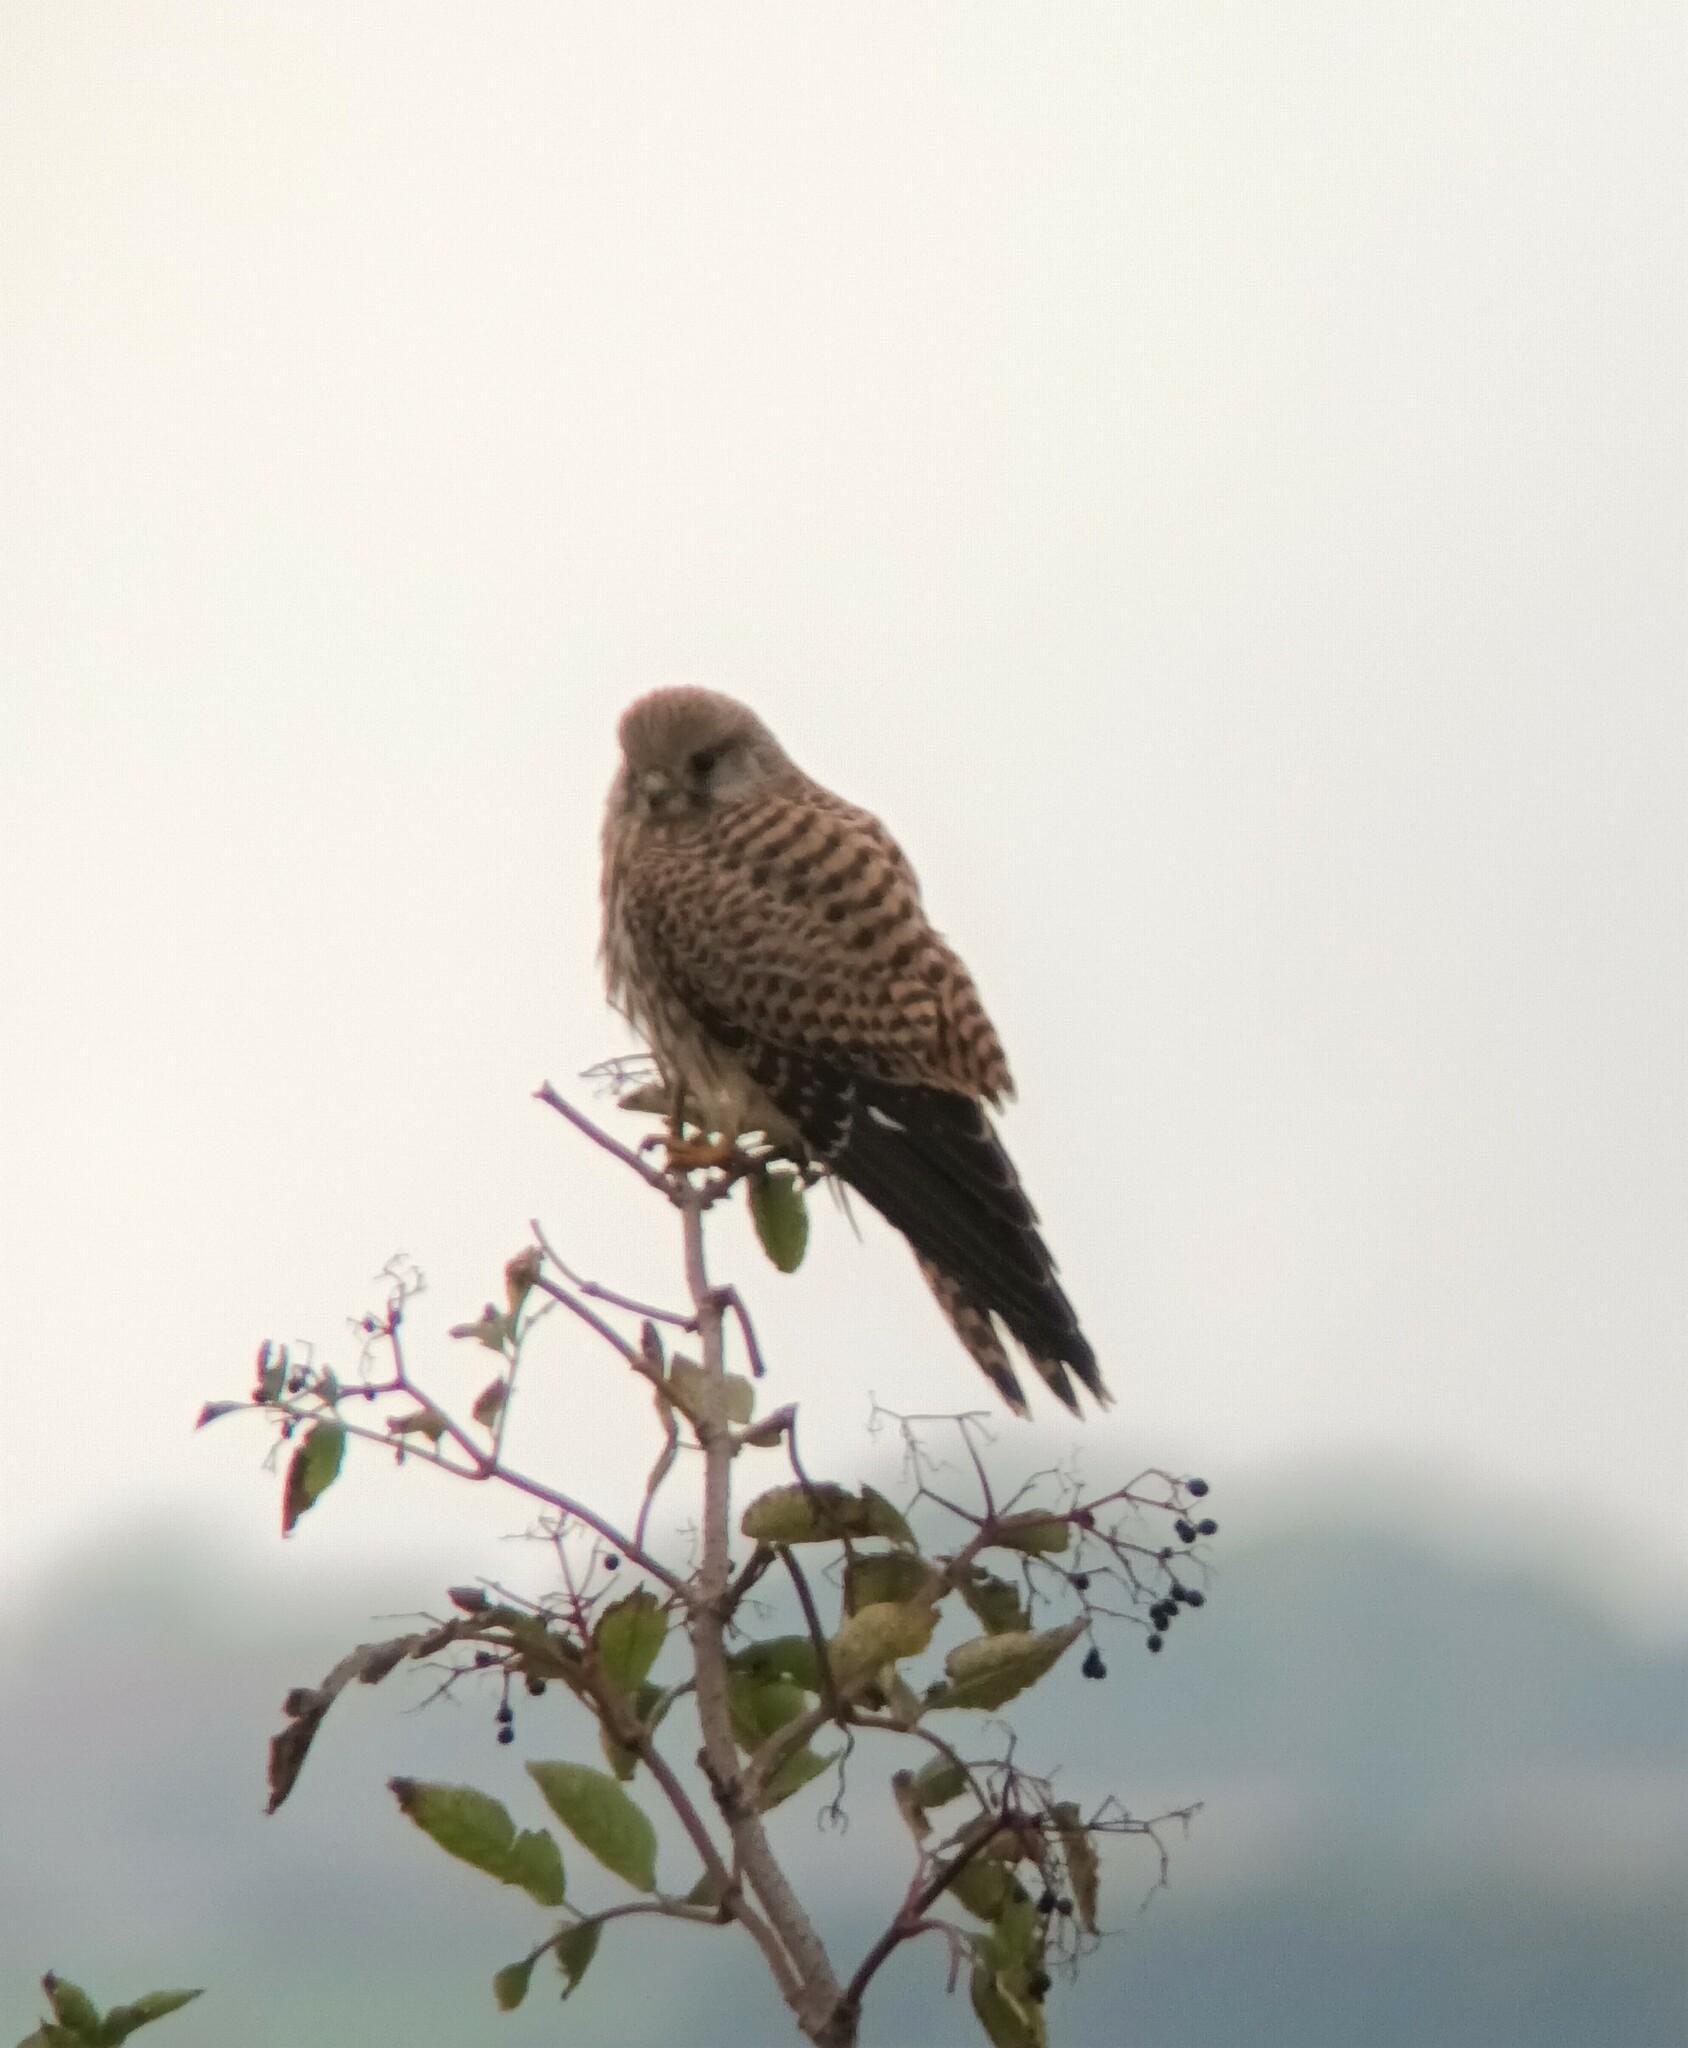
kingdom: Animalia
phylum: Chordata
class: Aves
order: Falconiformes
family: Falconidae
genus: Falco
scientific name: Falco tinnunculus
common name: Common kestrel
